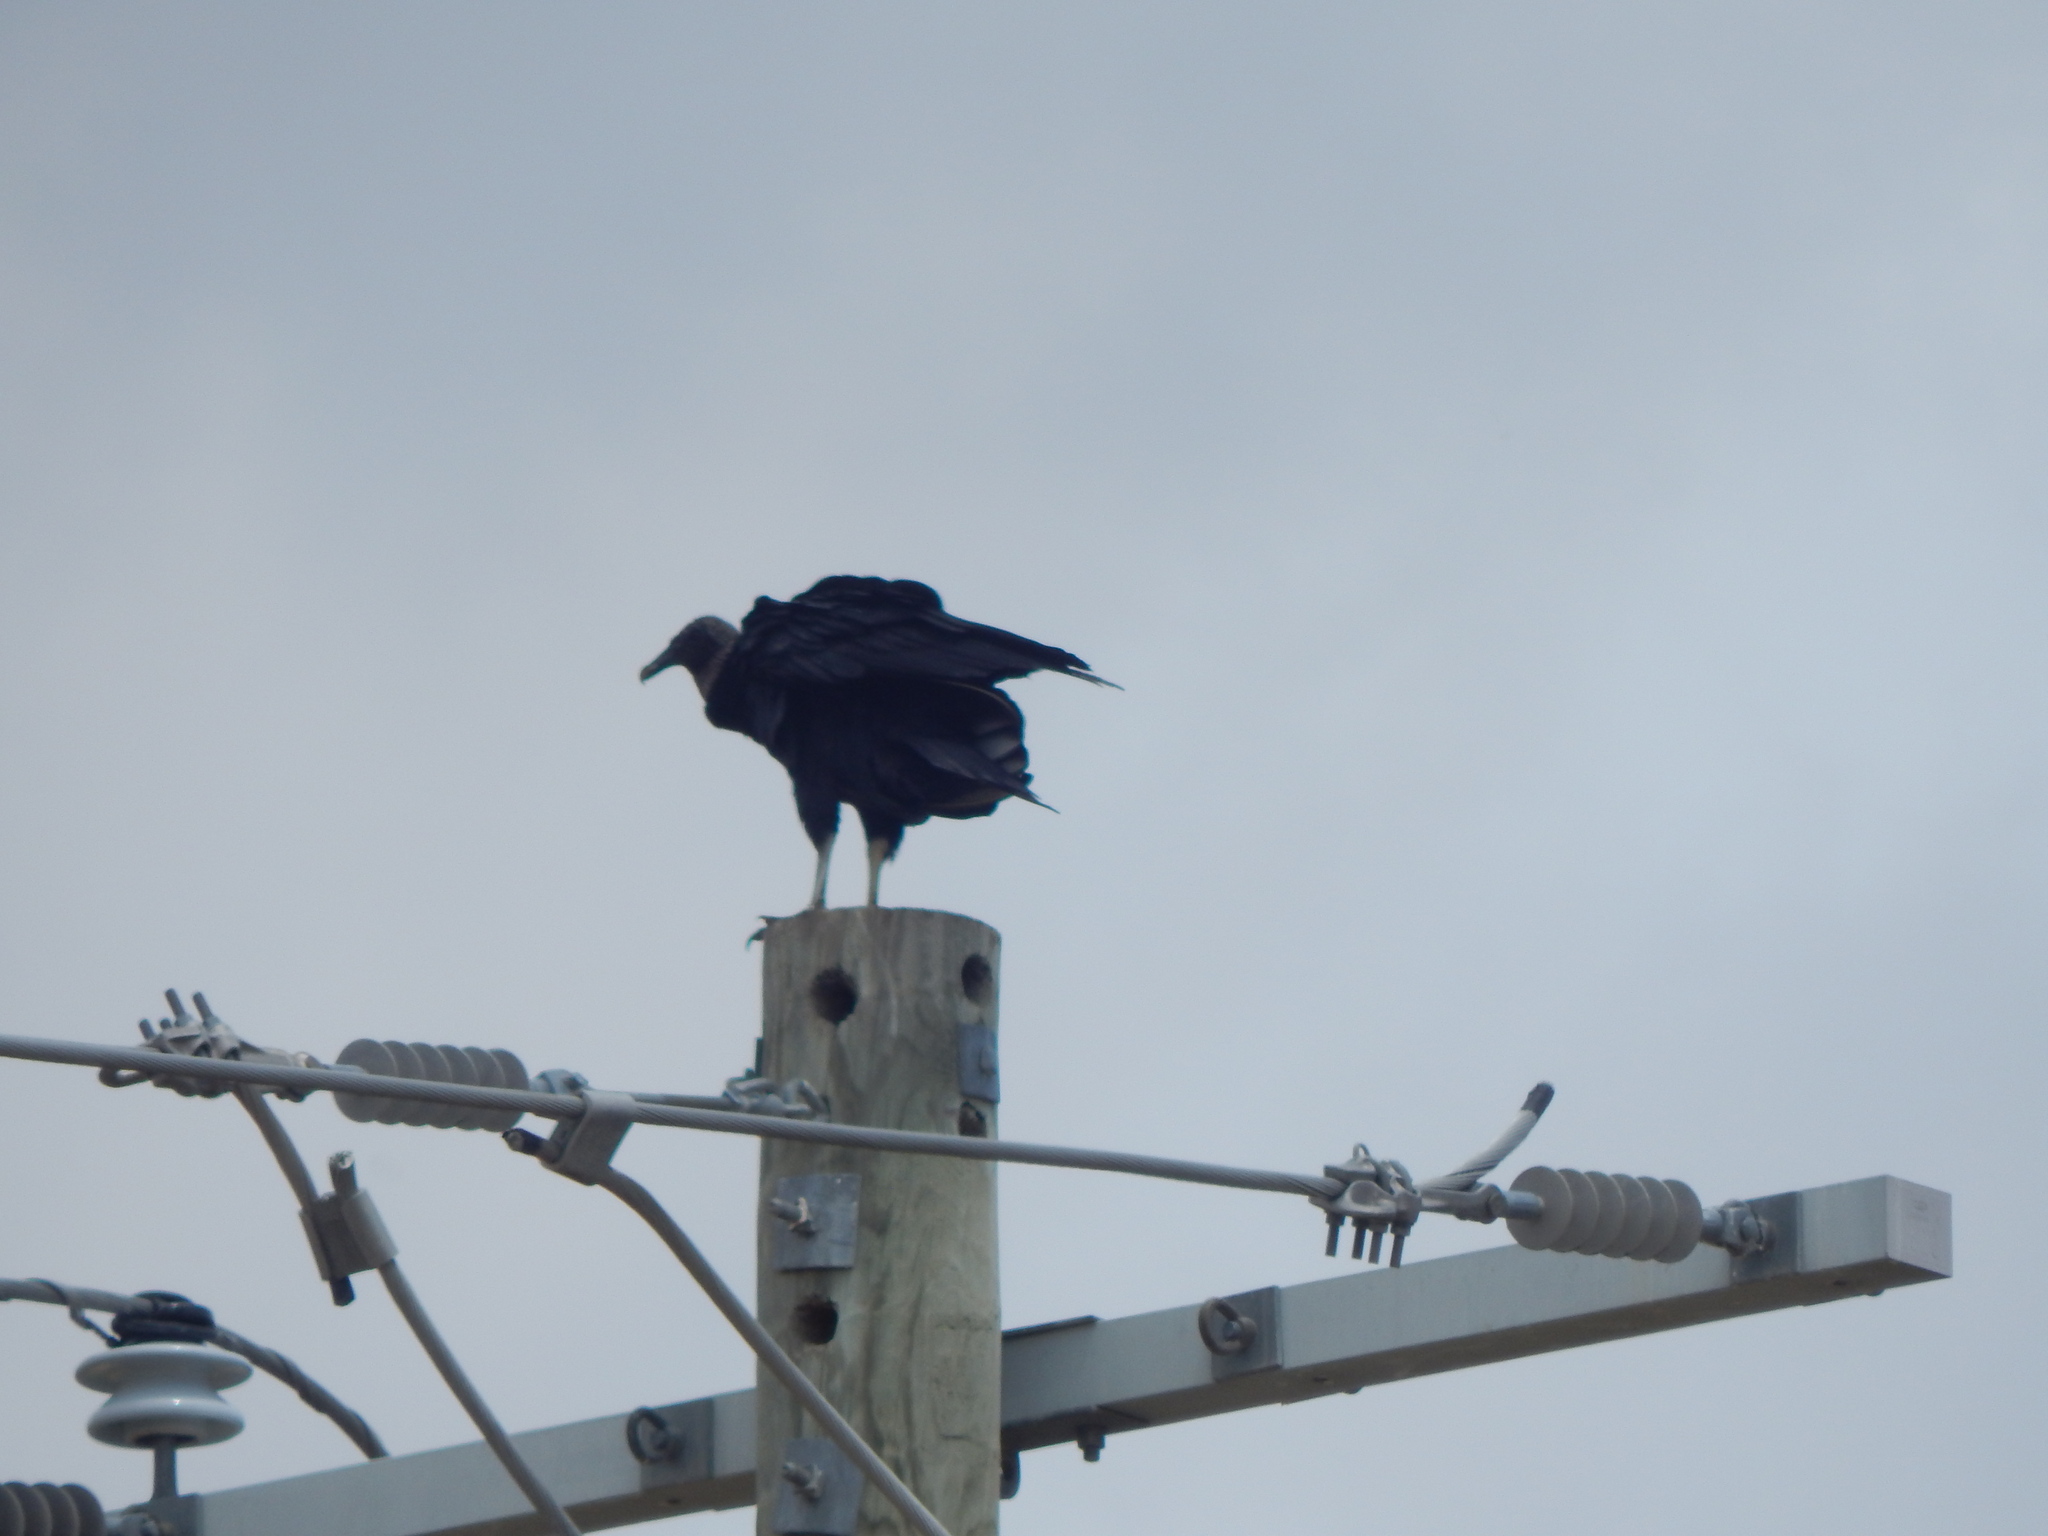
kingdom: Animalia
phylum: Chordata
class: Aves
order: Accipitriformes
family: Cathartidae
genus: Coragyps
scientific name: Coragyps atratus
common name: Black vulture
